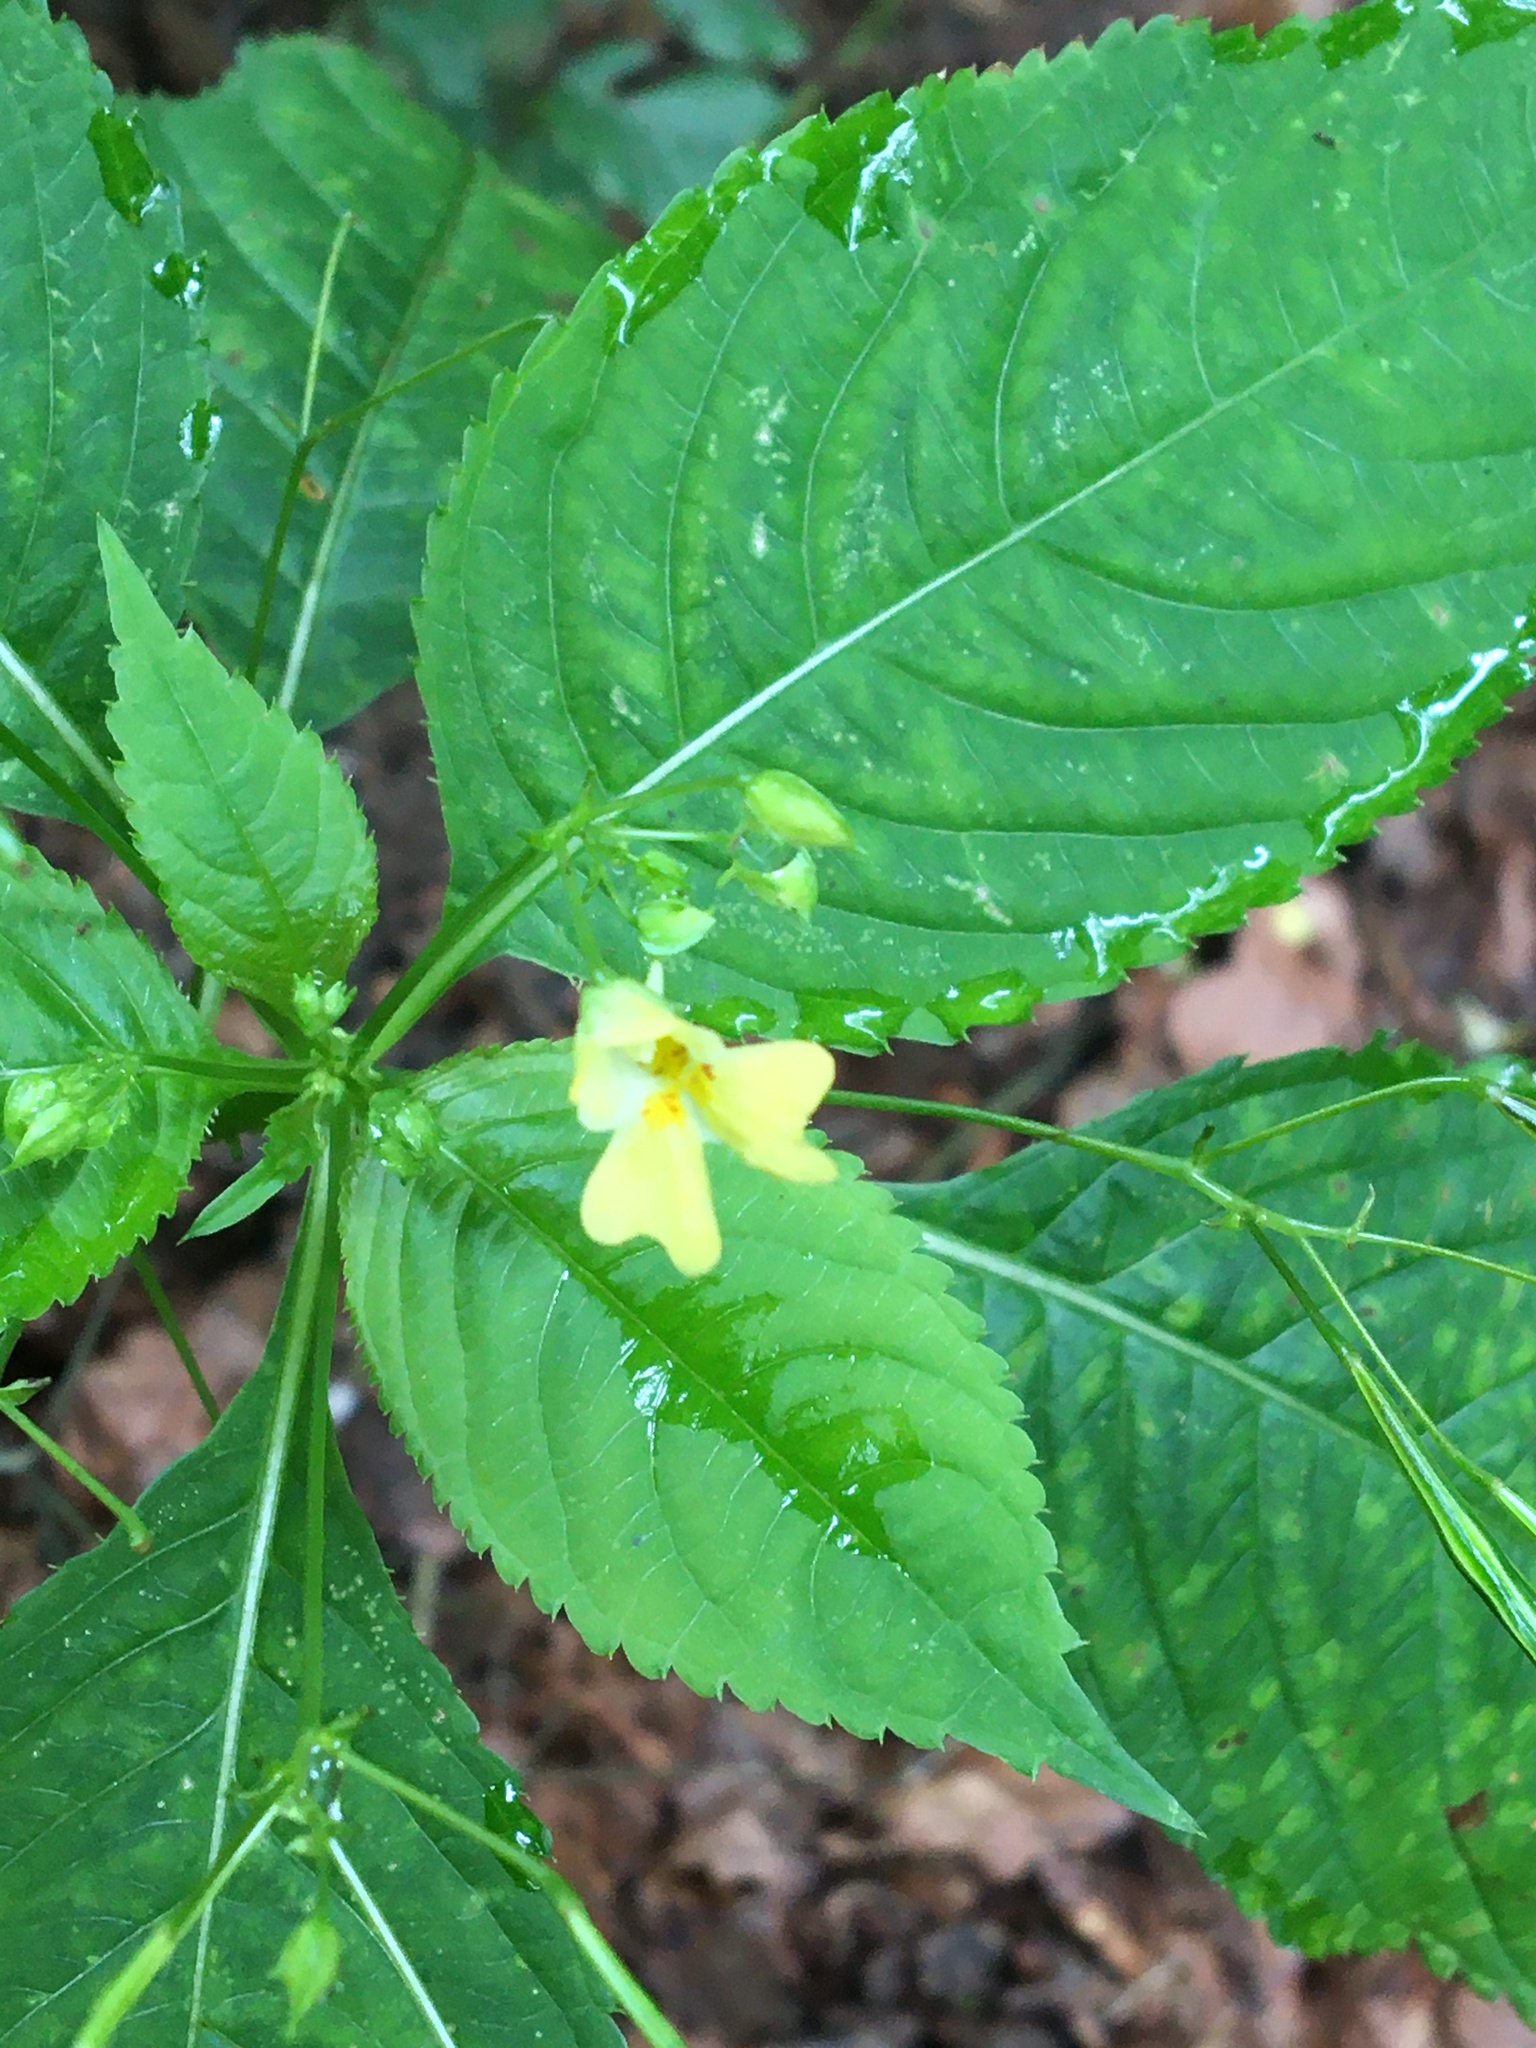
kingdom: Plantae
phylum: Tracheophyta
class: Magnoliopsida
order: Ericales
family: Balsaminaceae
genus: Impatiens
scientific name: Impatiens parviflora
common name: Small balsam
